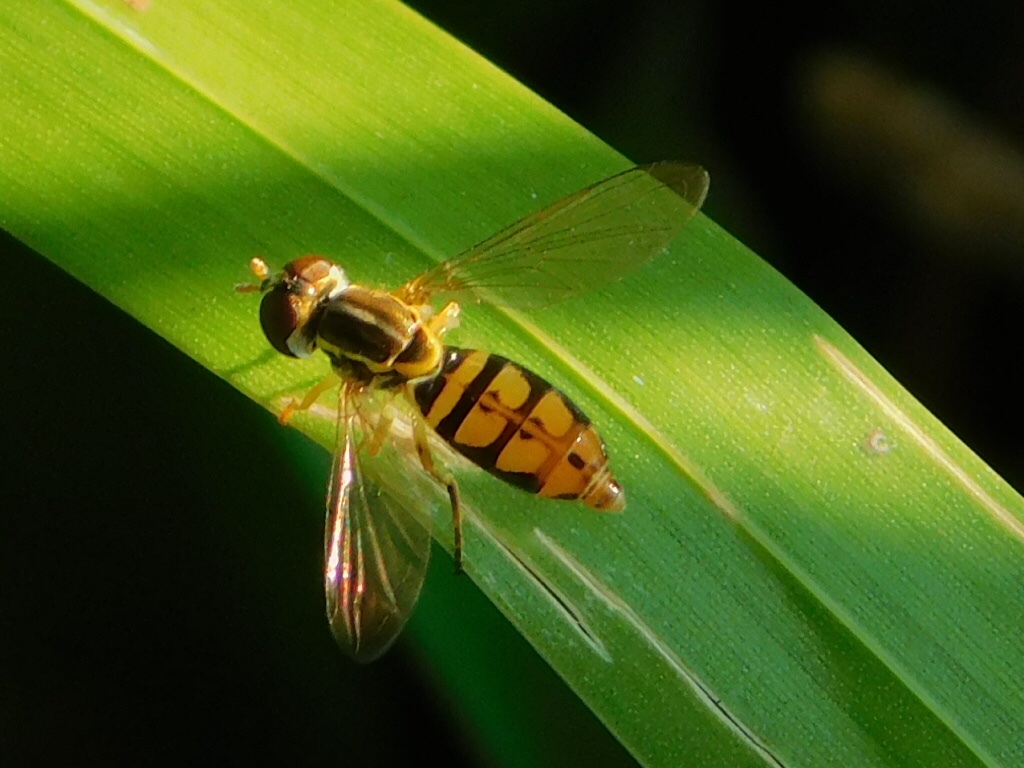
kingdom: Animalia
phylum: Arthropoda
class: Insecta
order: Diptera
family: Syrphidae
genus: Toxomerus
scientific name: Toxomerus floralis
